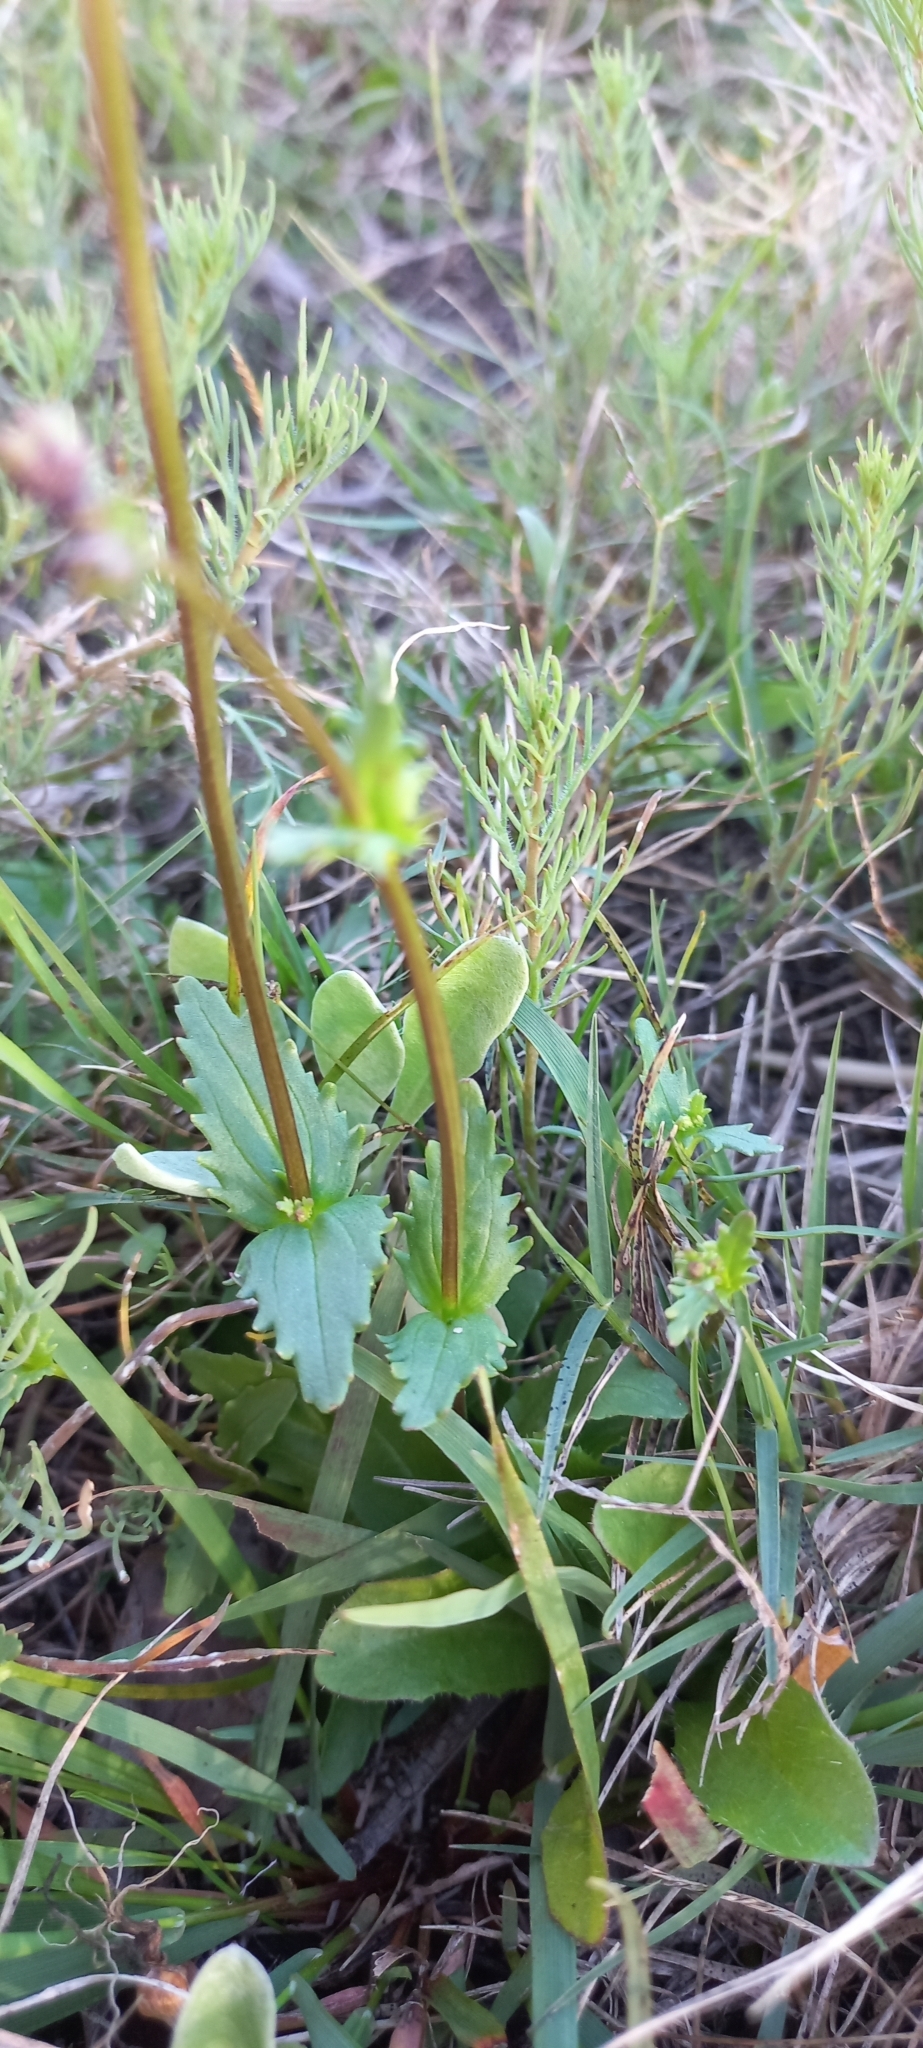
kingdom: Plantae
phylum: Tracheophyta
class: Magnoliopsida
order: Lamiales
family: Scrophulariaceae
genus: Nemesia
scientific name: Nemesia barbata
